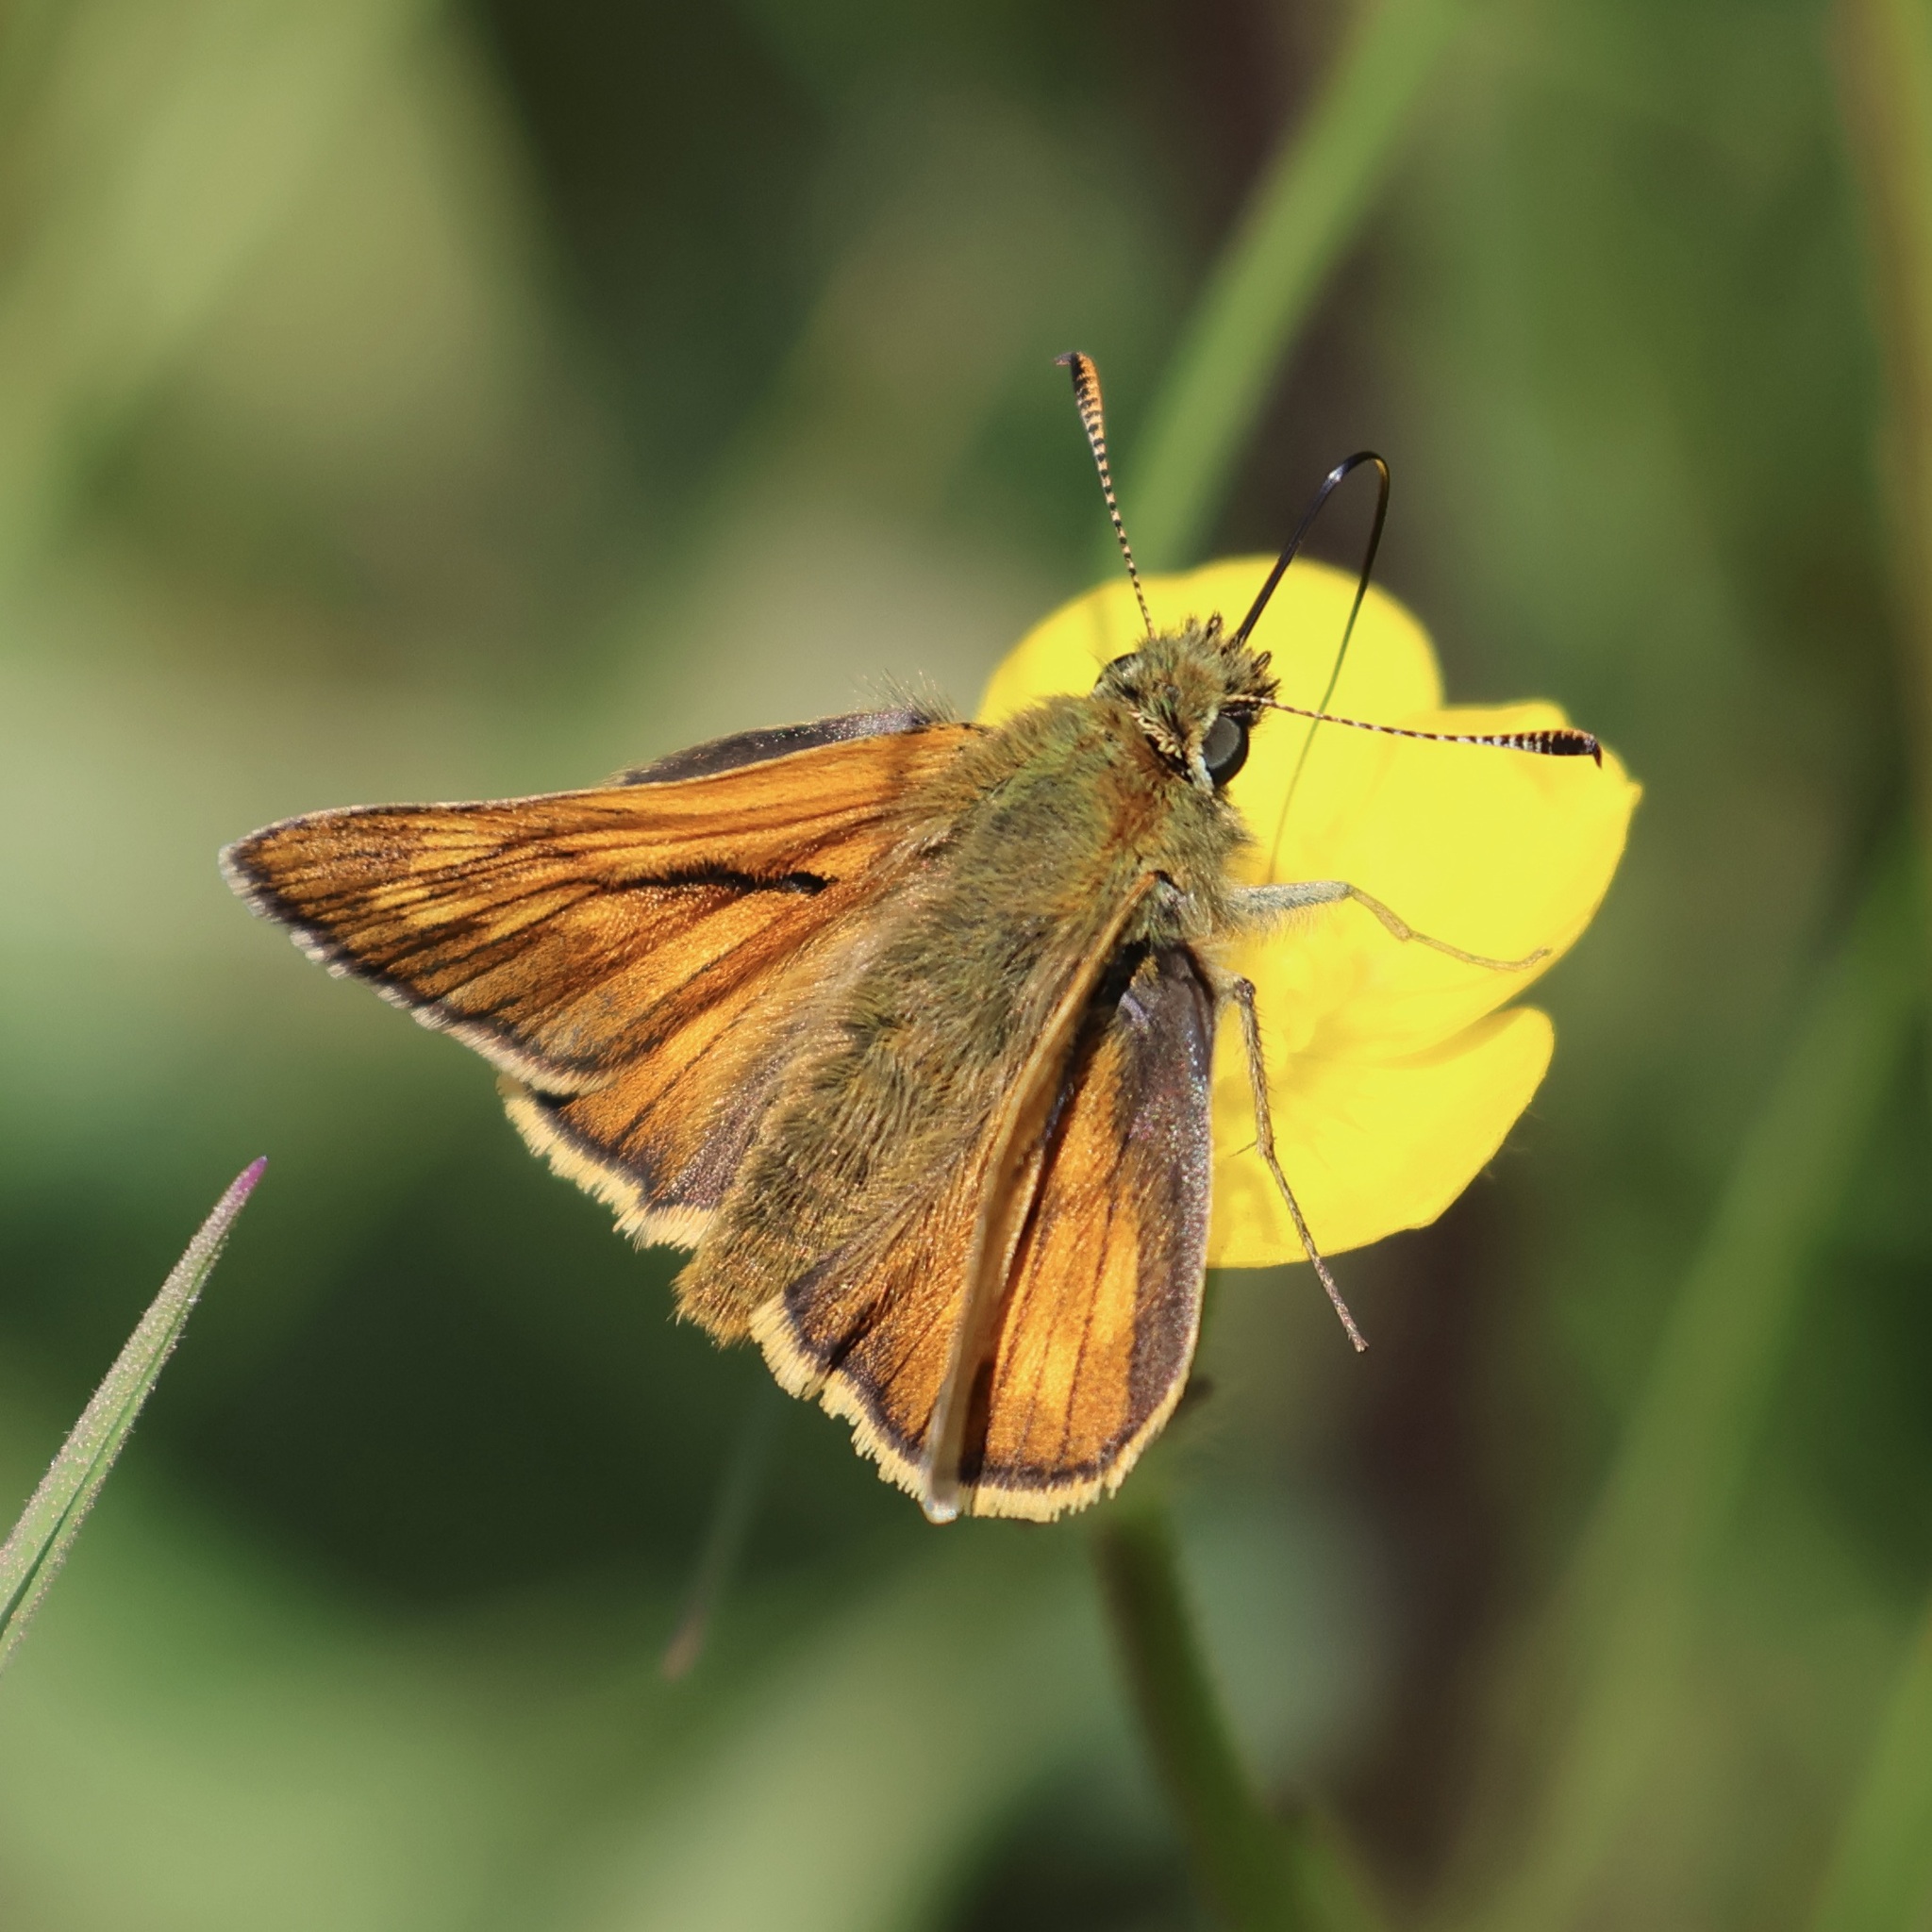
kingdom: Animalia
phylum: Arthropoda
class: Insecta
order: Lepidoptera
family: Hesperiidae
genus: Ochlodes
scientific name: Ochlodes venata
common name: Large skipper
